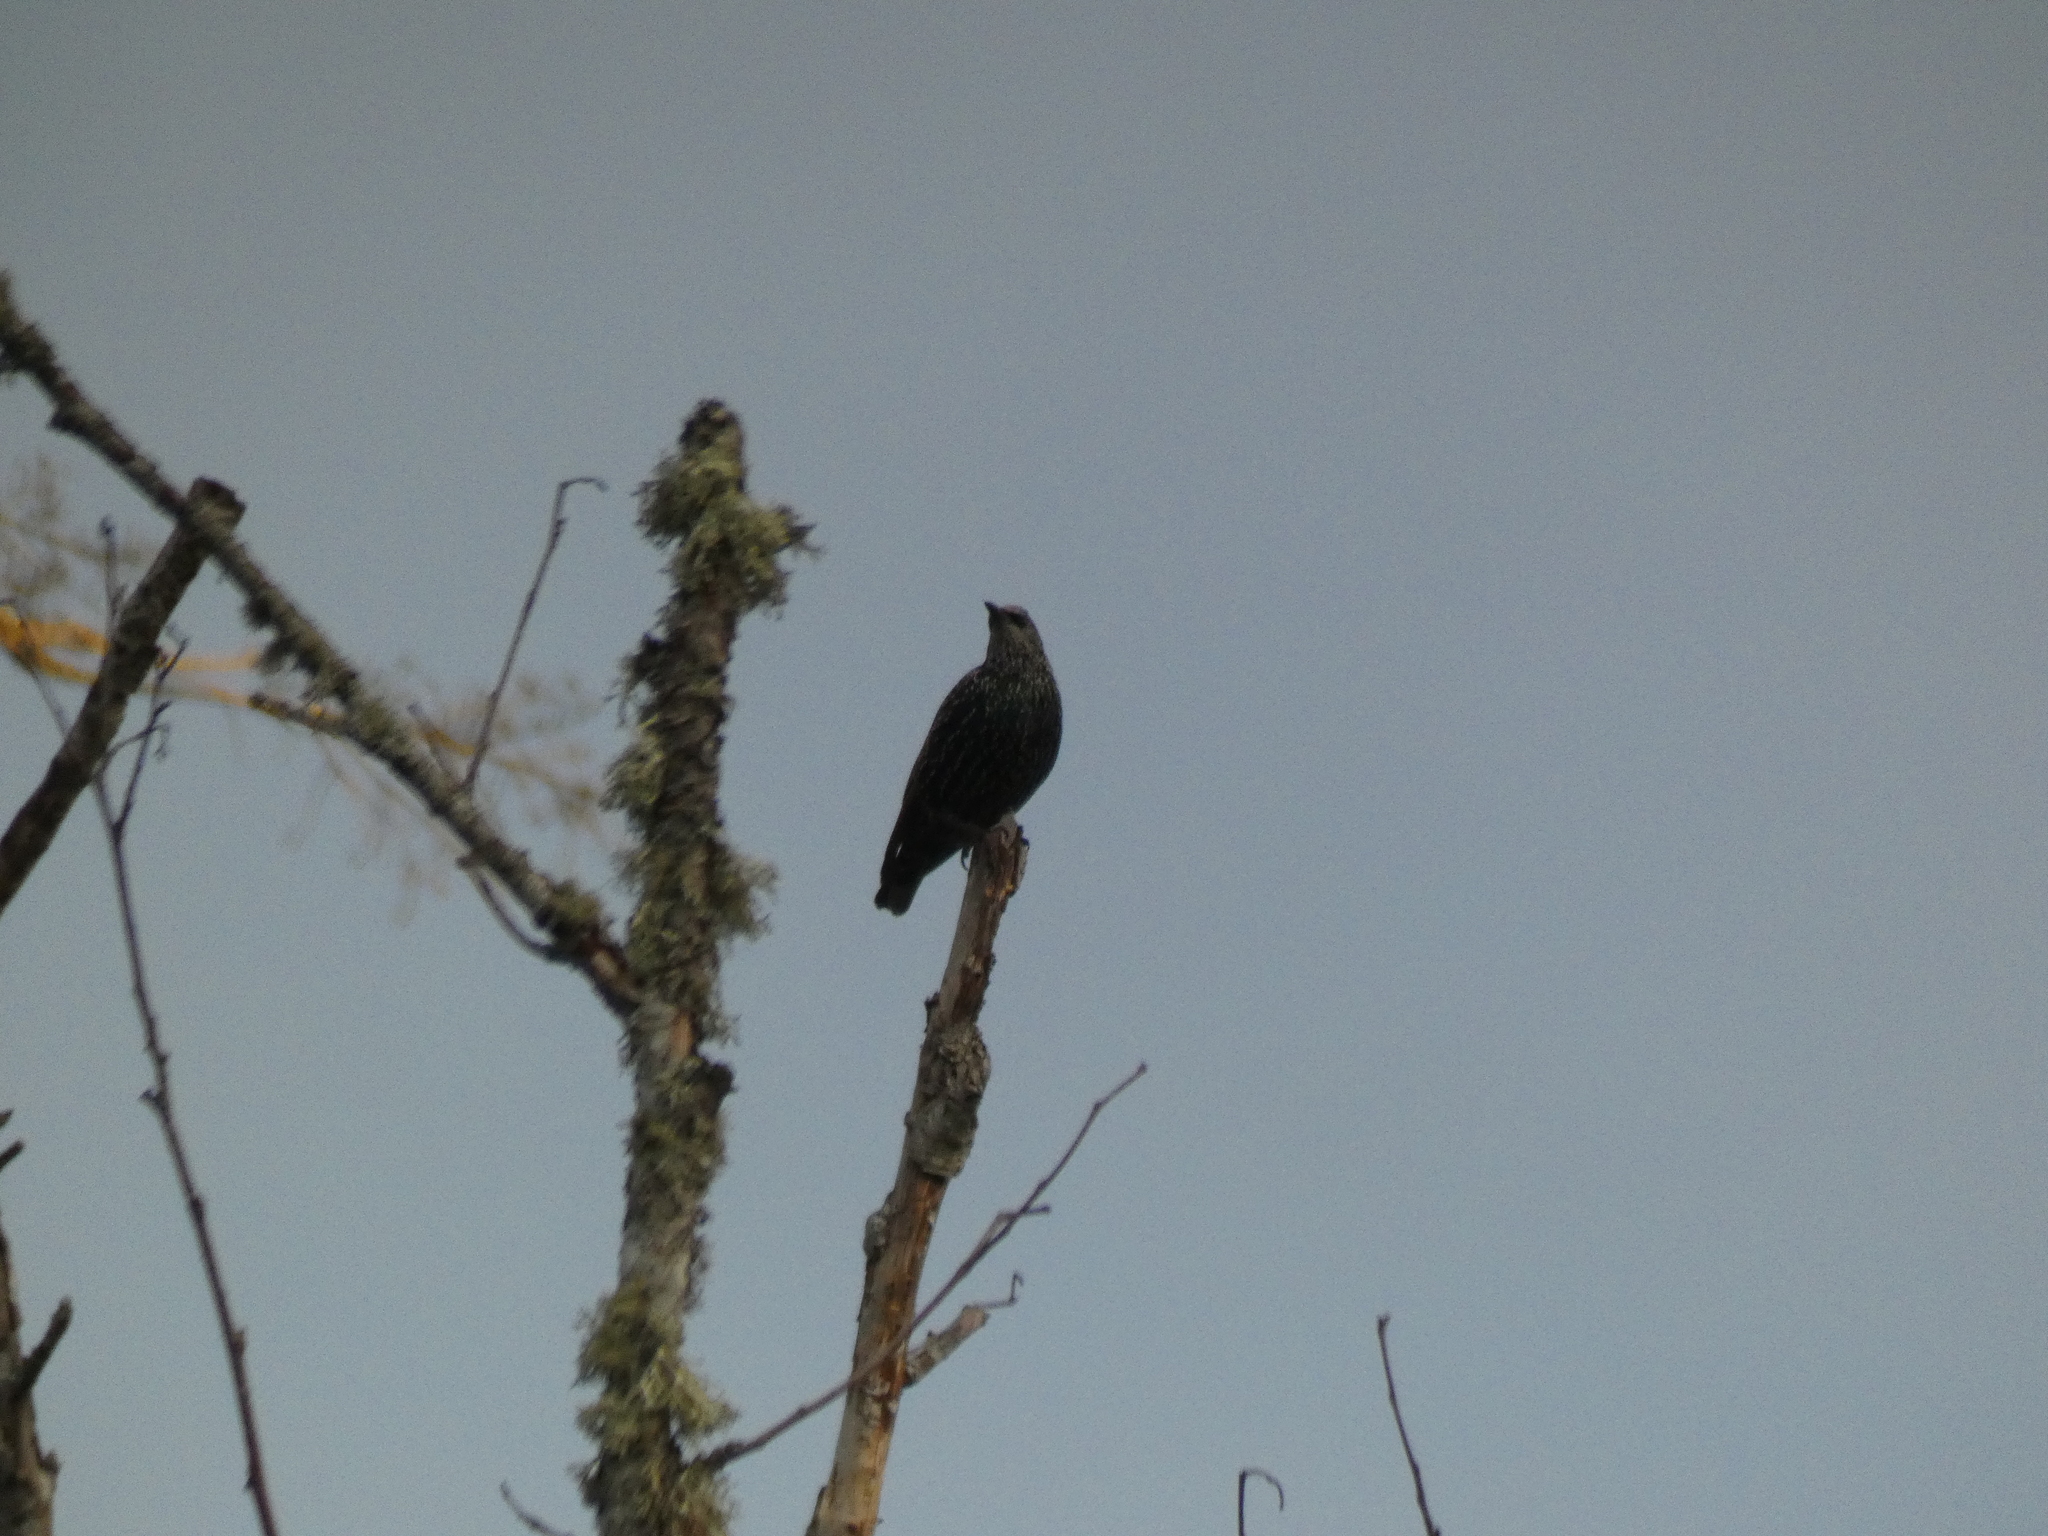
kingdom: Animalia
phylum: Chordata
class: Aves
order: Passeriformes
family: Sturnidae
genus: Sturnus
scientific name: Sturnus vulgaris
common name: Common starling
